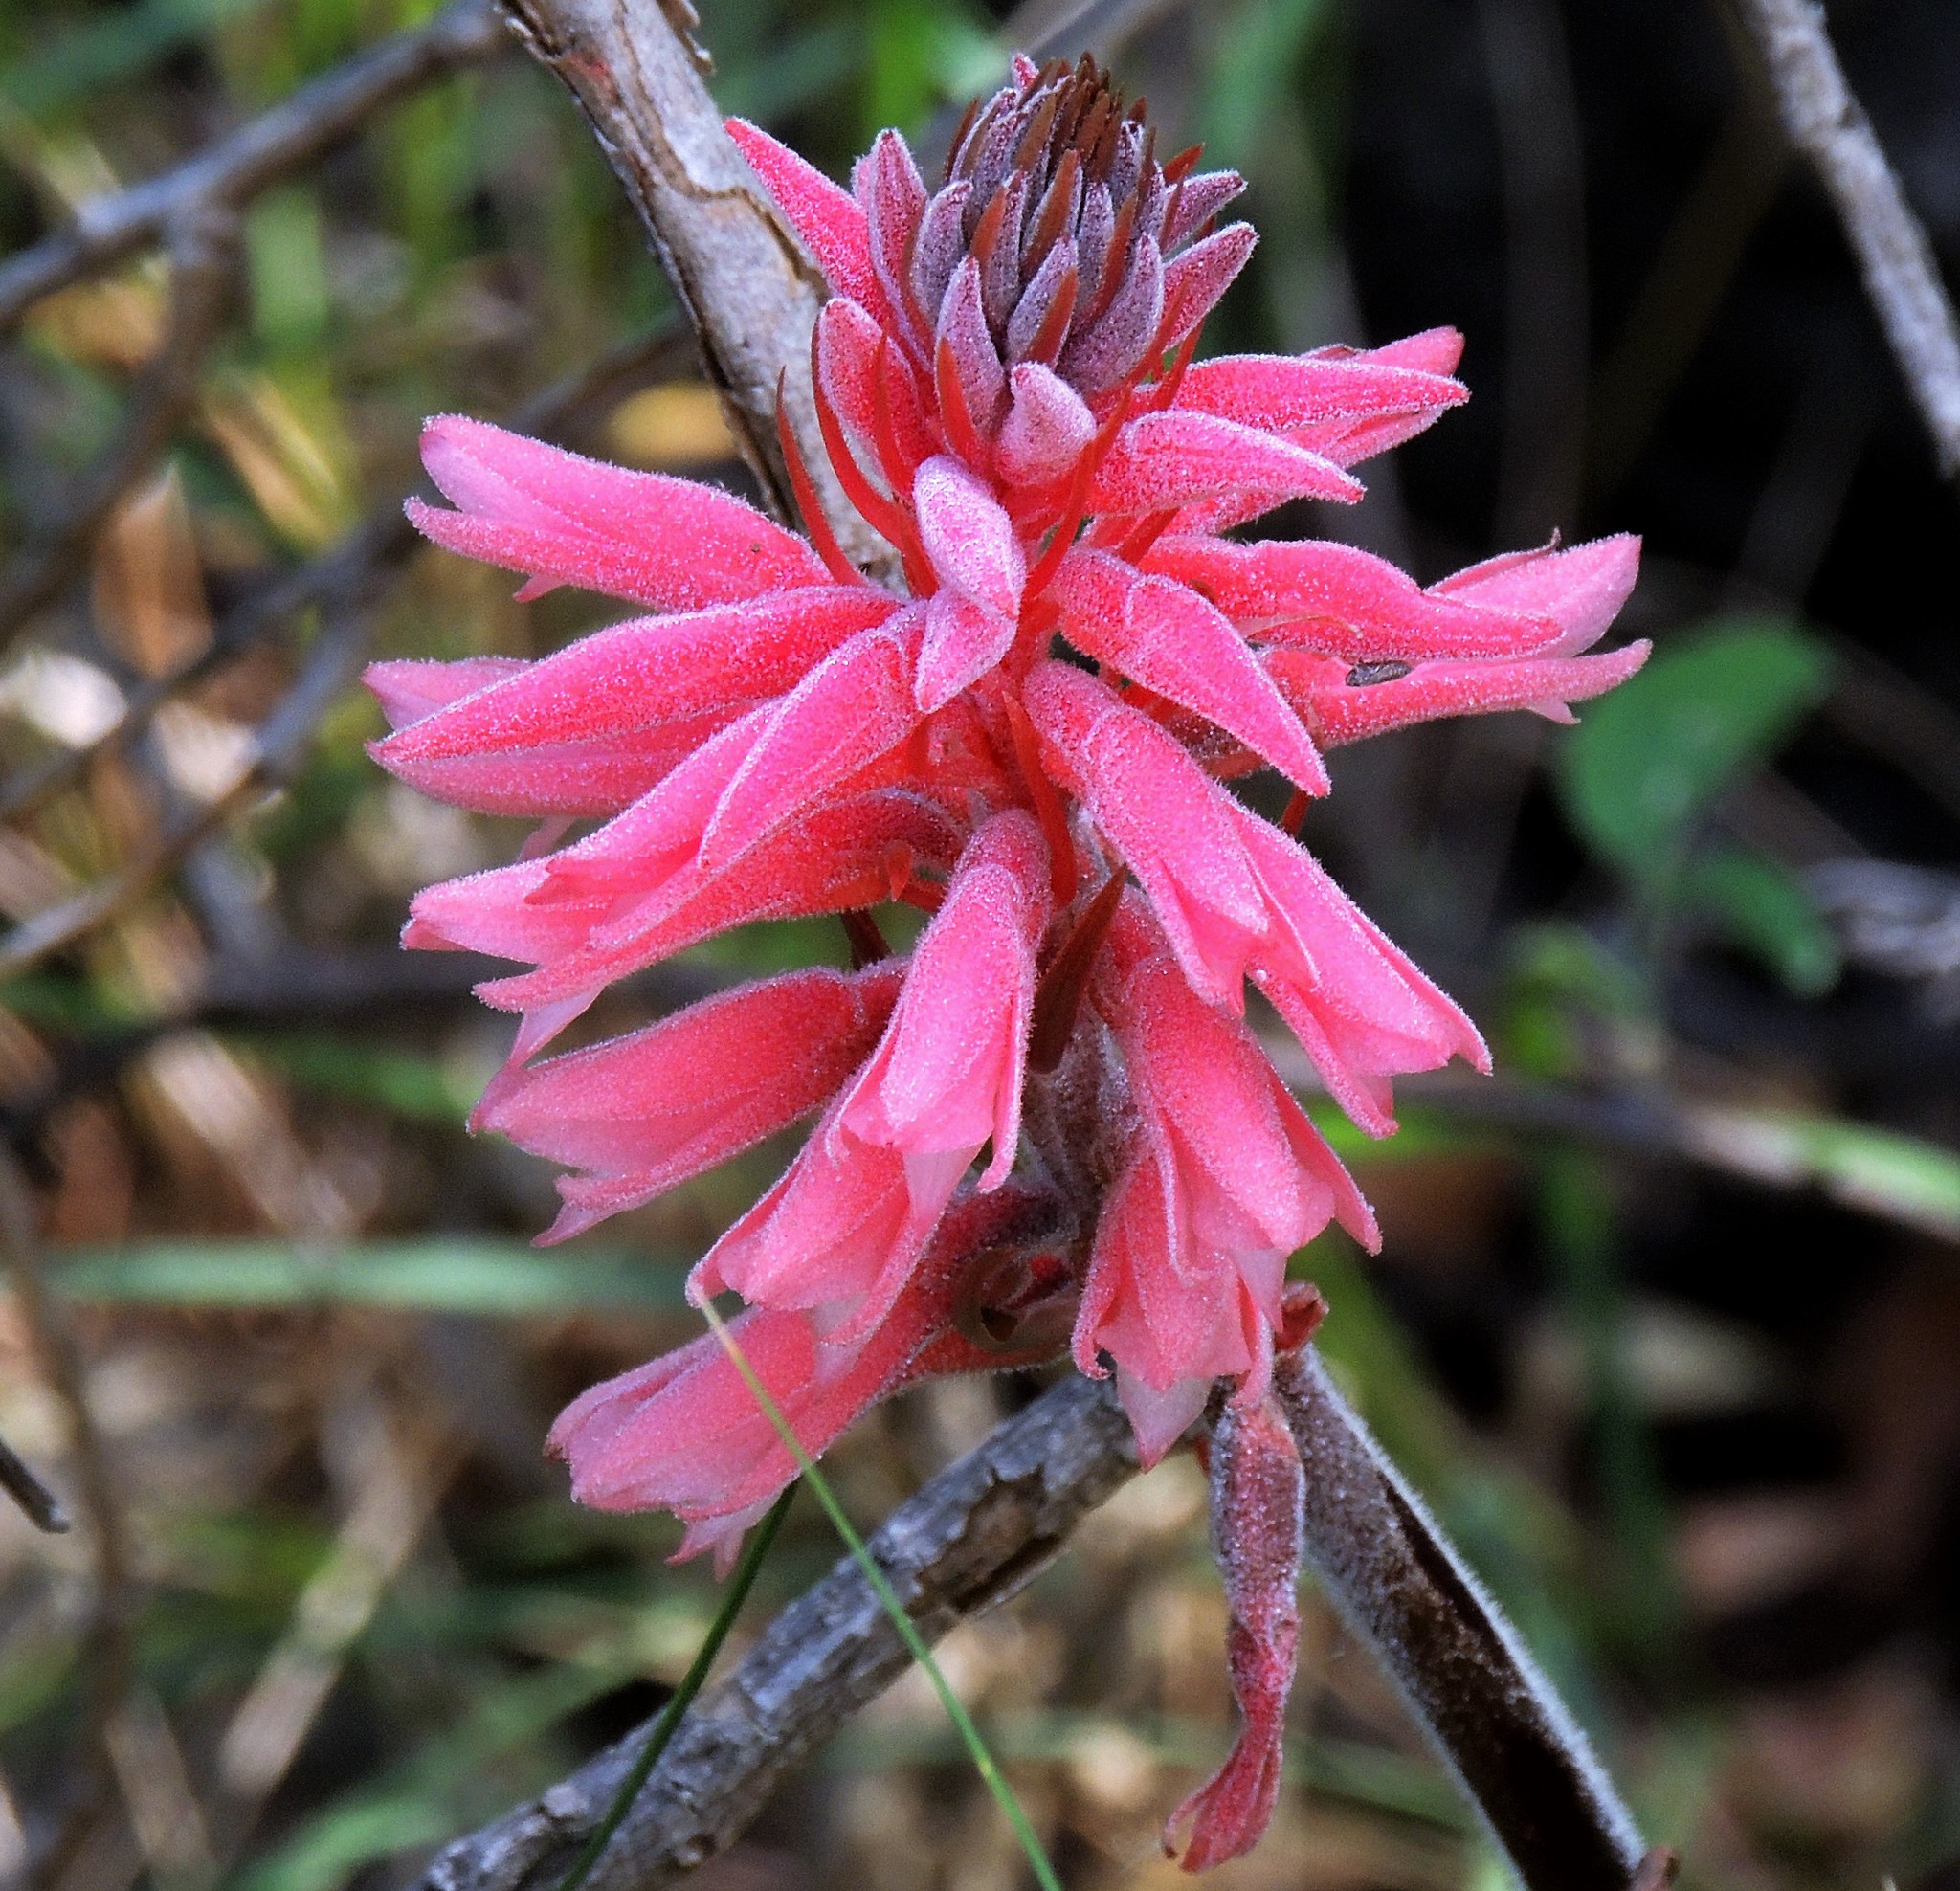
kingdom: Plantae
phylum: Tracheophyta
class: Liliopsida
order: Asparagales
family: Orchidaceae
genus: Sacoila
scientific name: Sacoila lanceolata
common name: Leafless beaked ladiestresses
